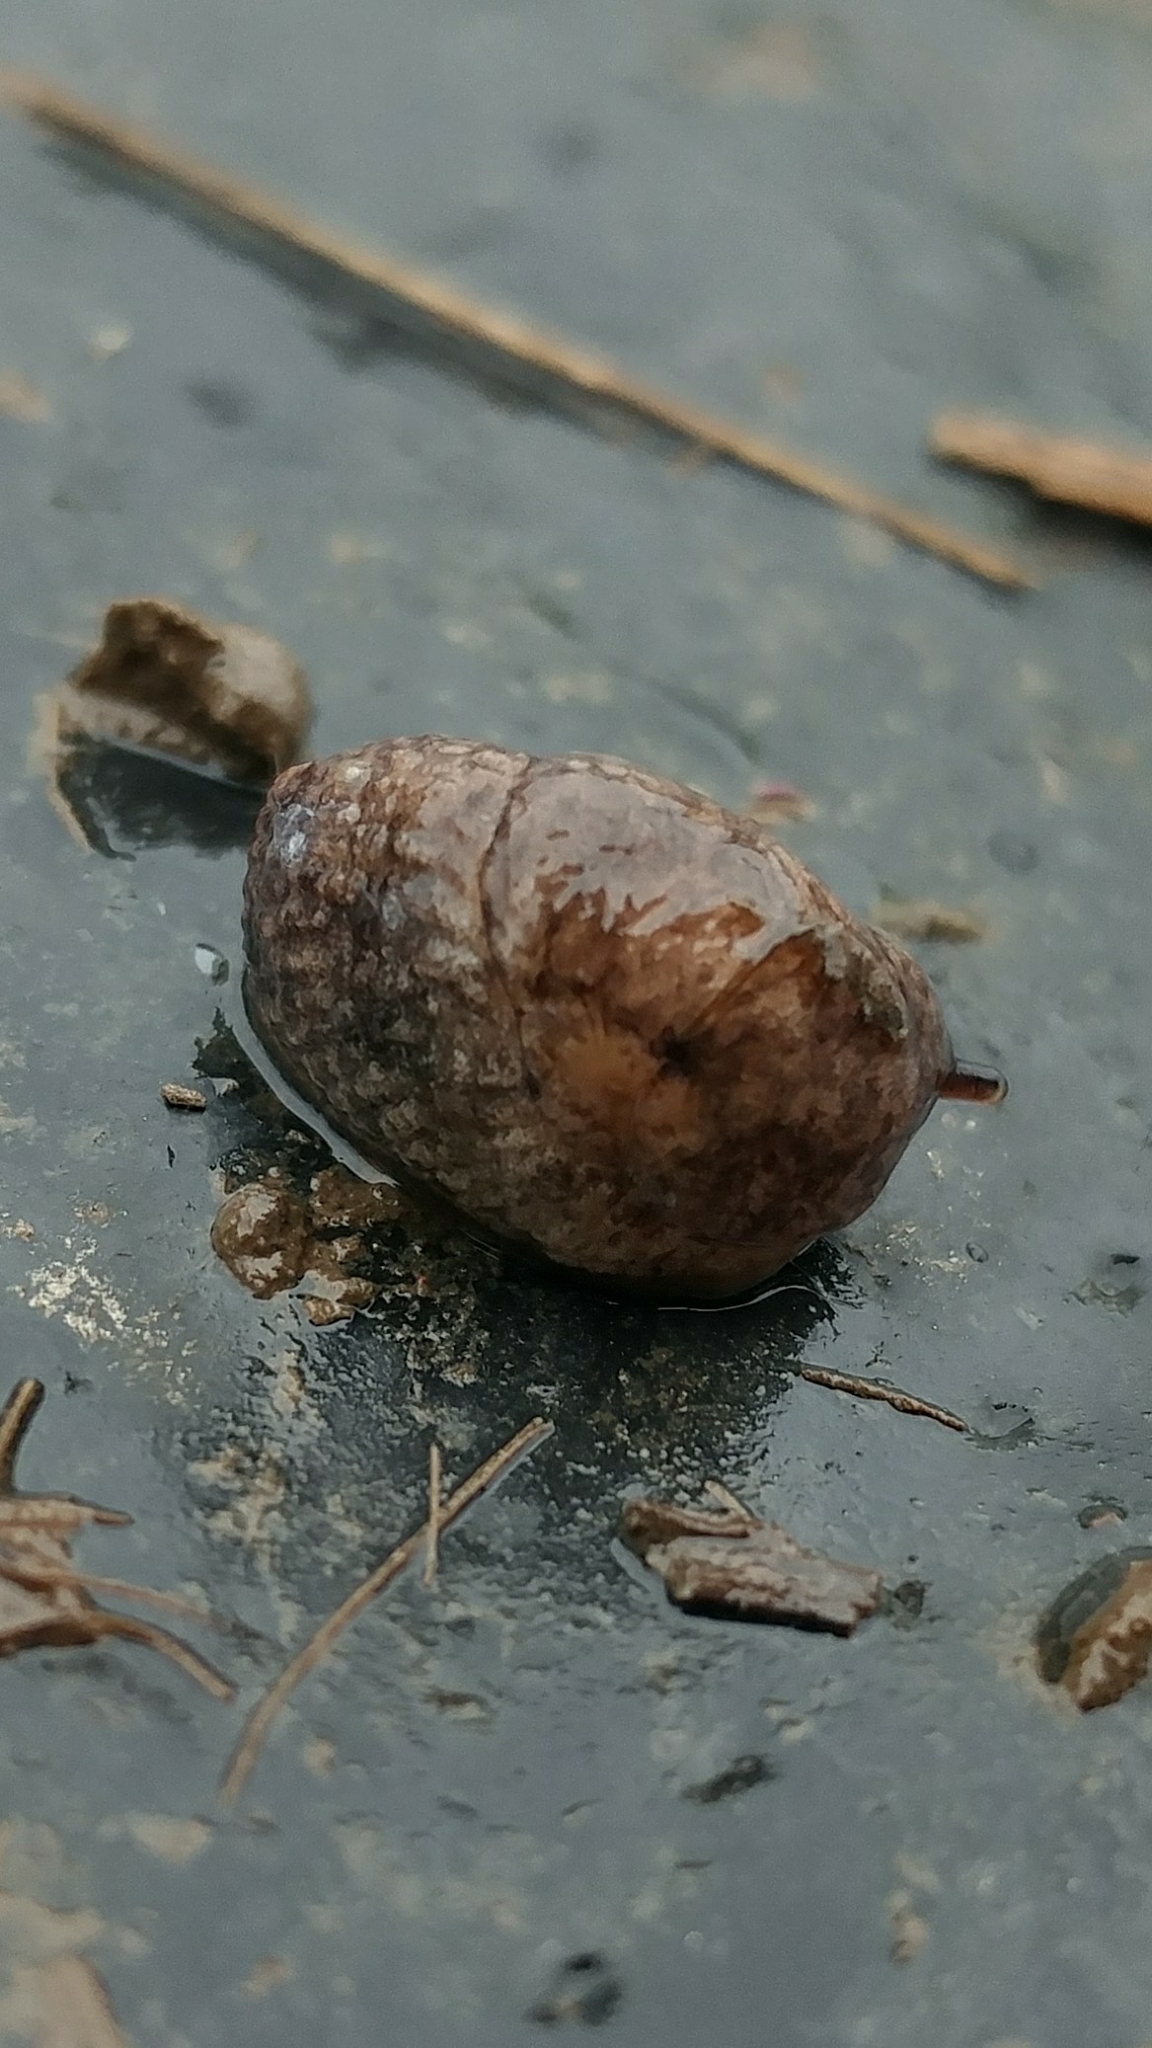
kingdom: Animalia
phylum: Mollusca
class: Gastropoda
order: Stylommatophora
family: Agriolimacidae
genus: Deroceras
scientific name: Deroceras reticulatum
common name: Gray field slug
